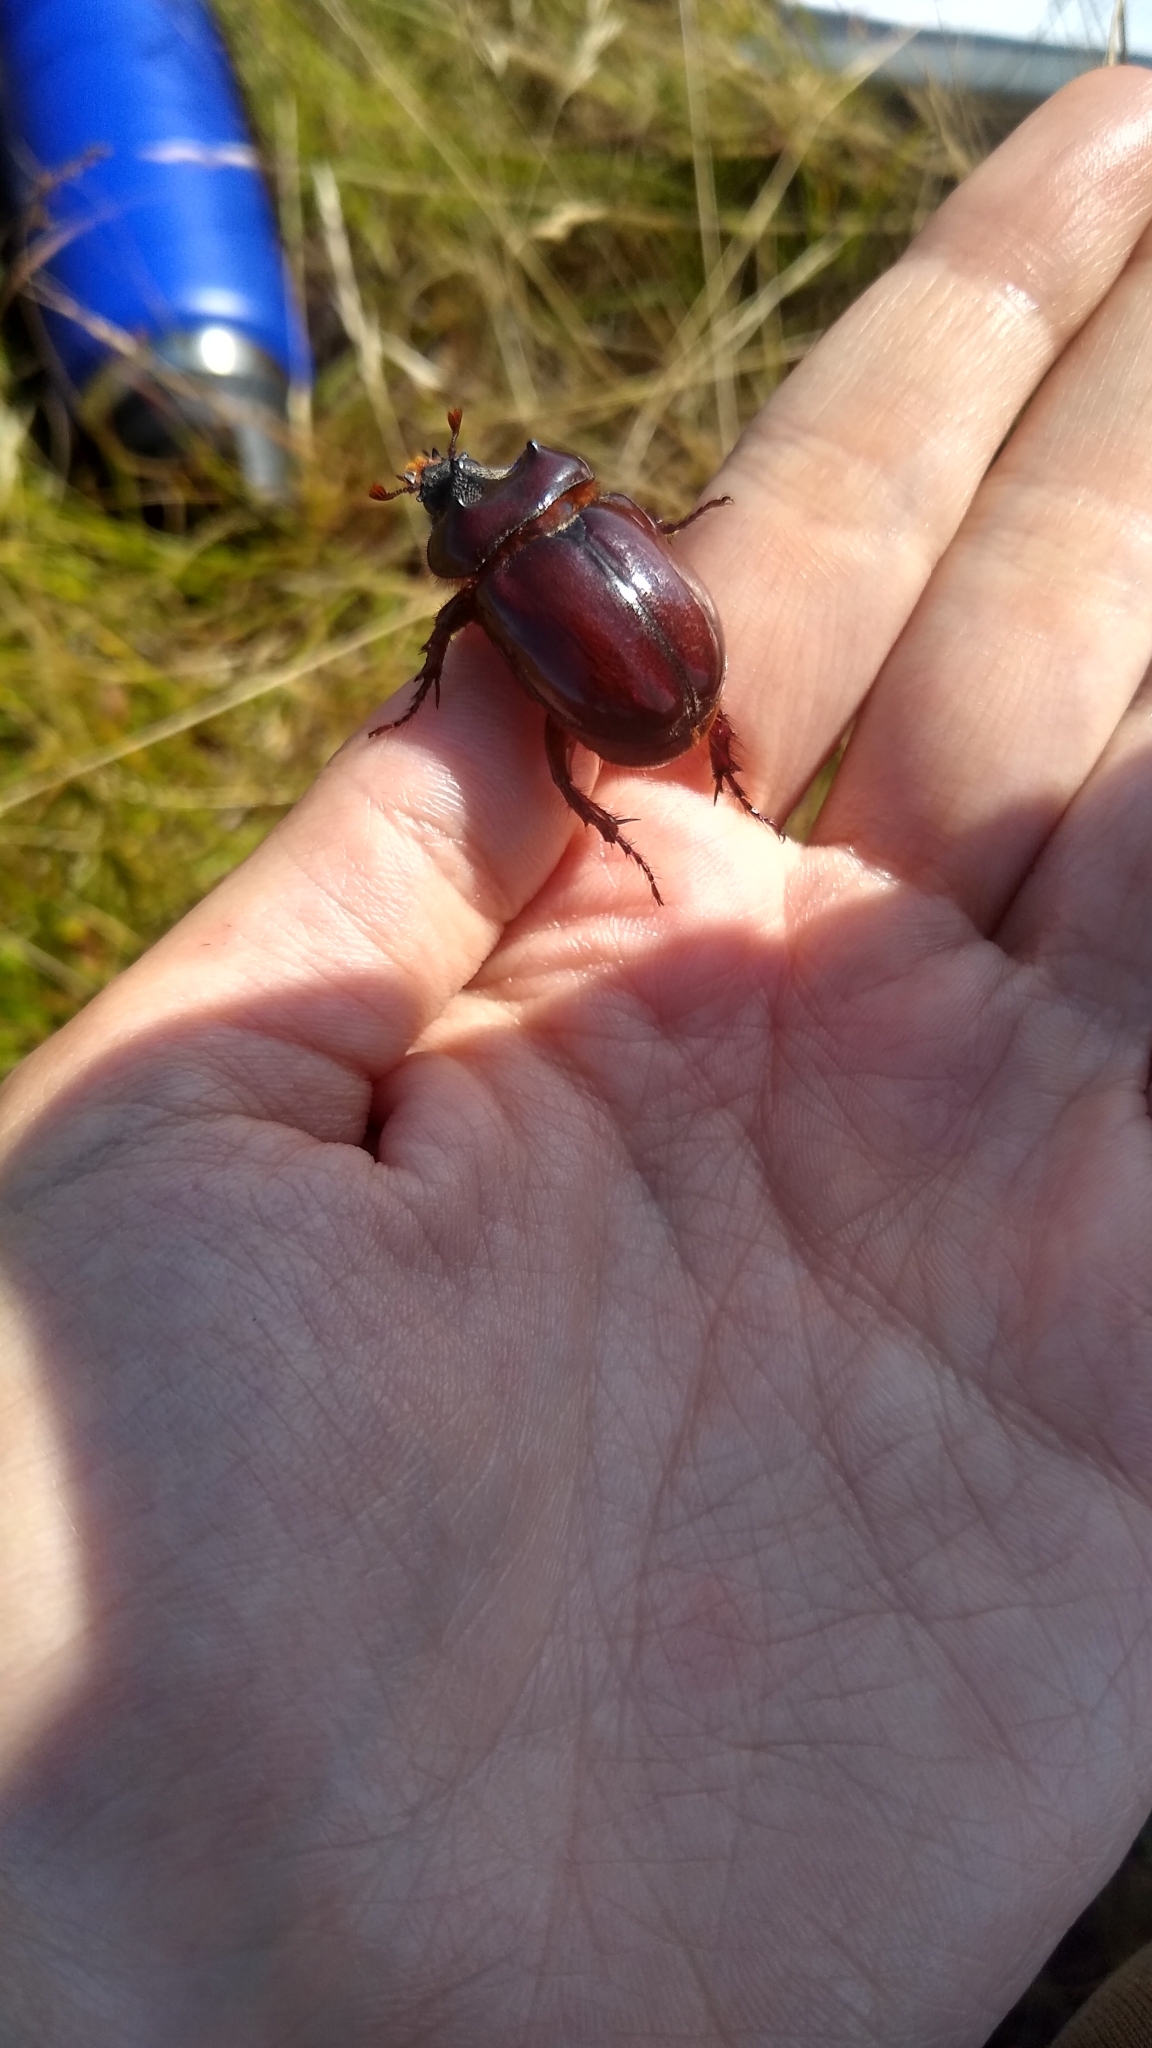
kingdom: Animalia
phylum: Arthropoda
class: Insecta
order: Coleoptera
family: Scarabaeidae
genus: Strategus
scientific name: Strategus antaeus
